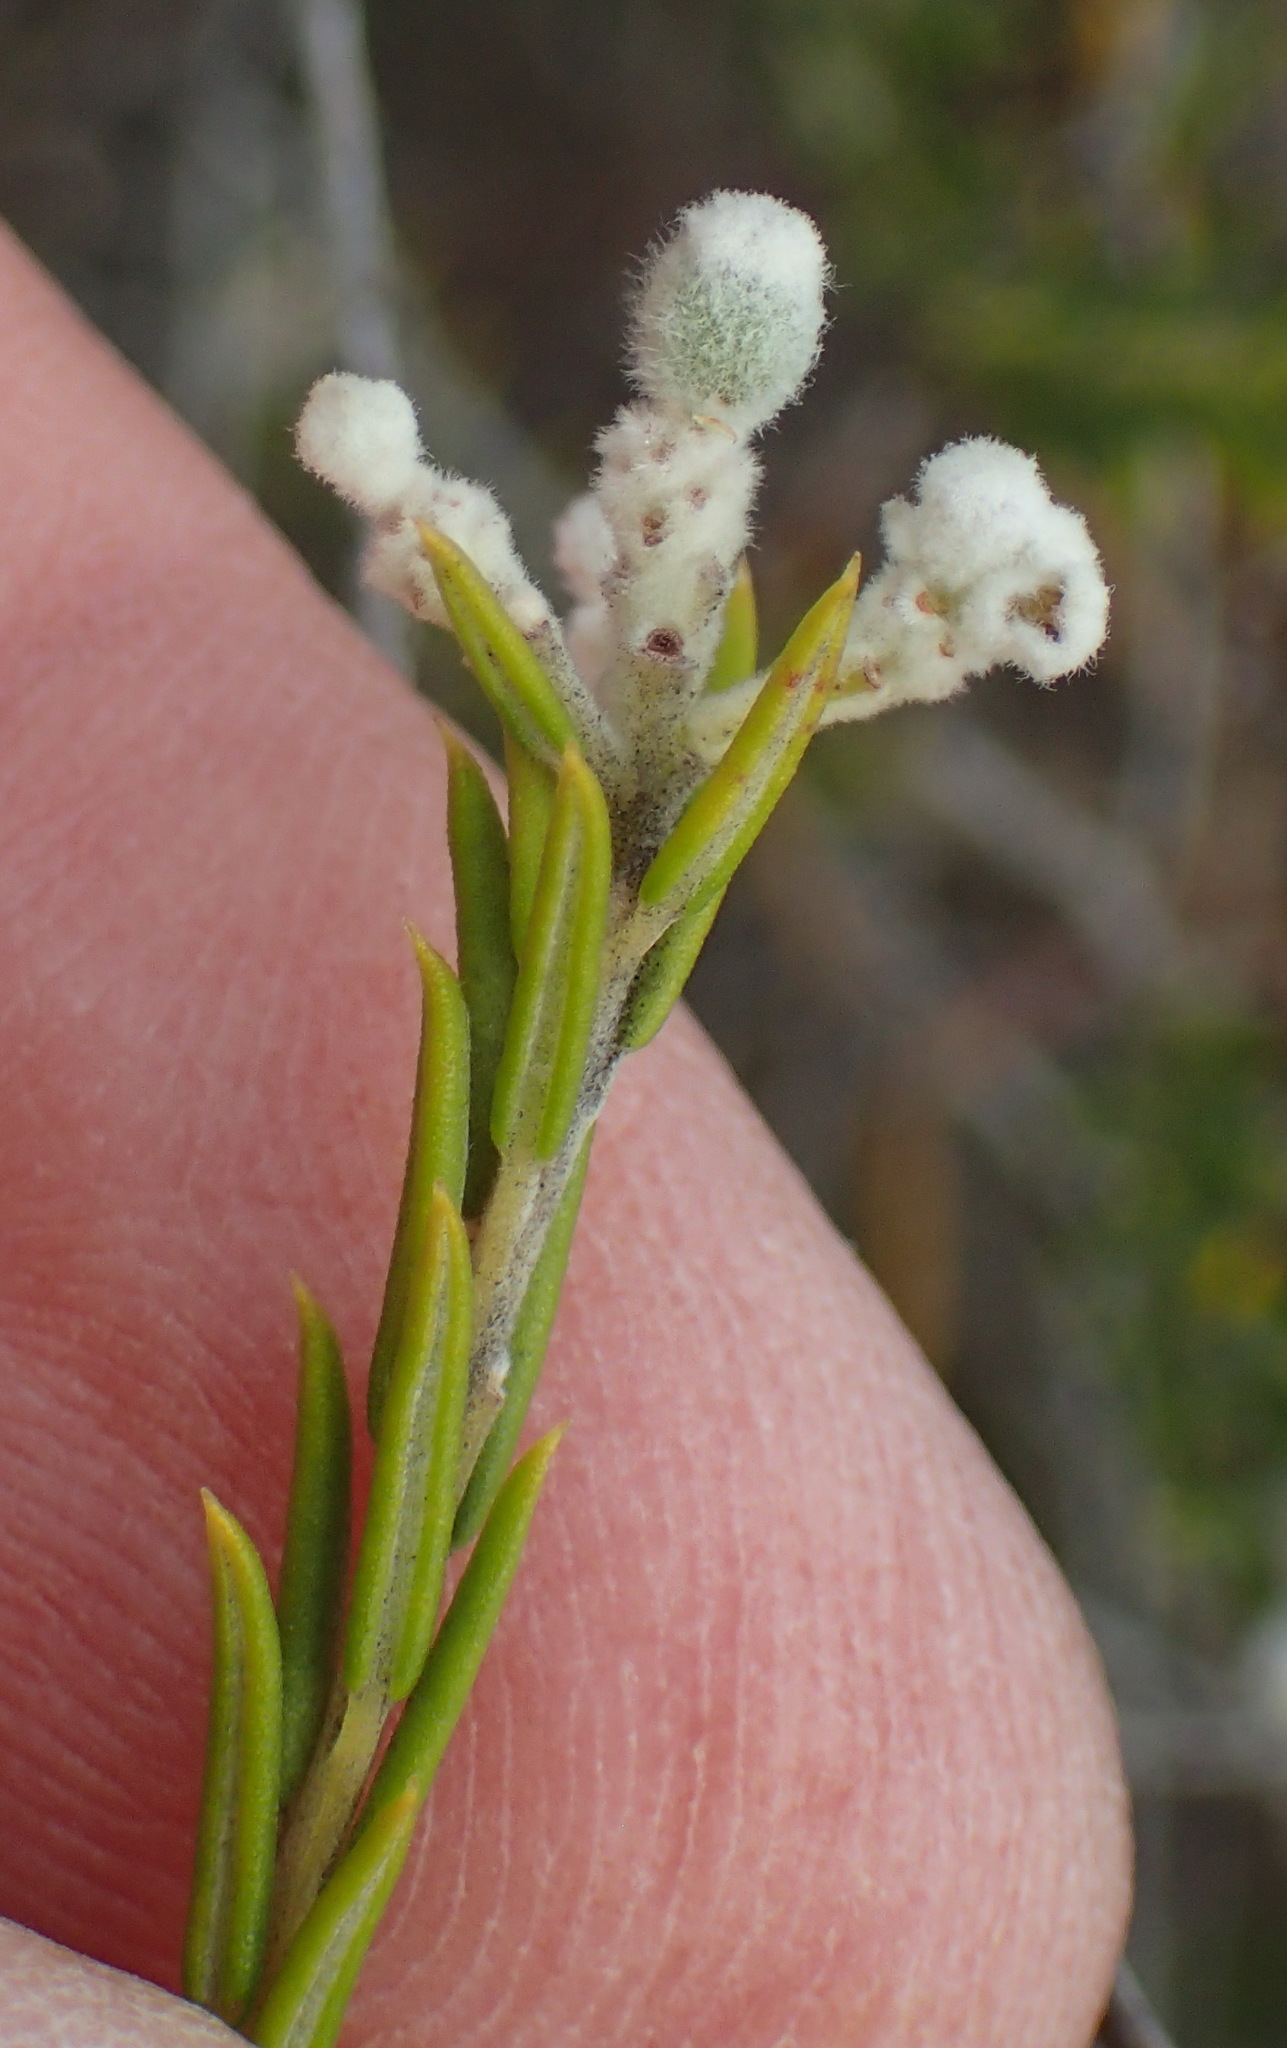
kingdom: Plantae
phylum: Tracheophyta
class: Magnoliopsida
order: Rosales
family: Rhamnaceae
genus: Phylica
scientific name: Phylica cryptandroides
